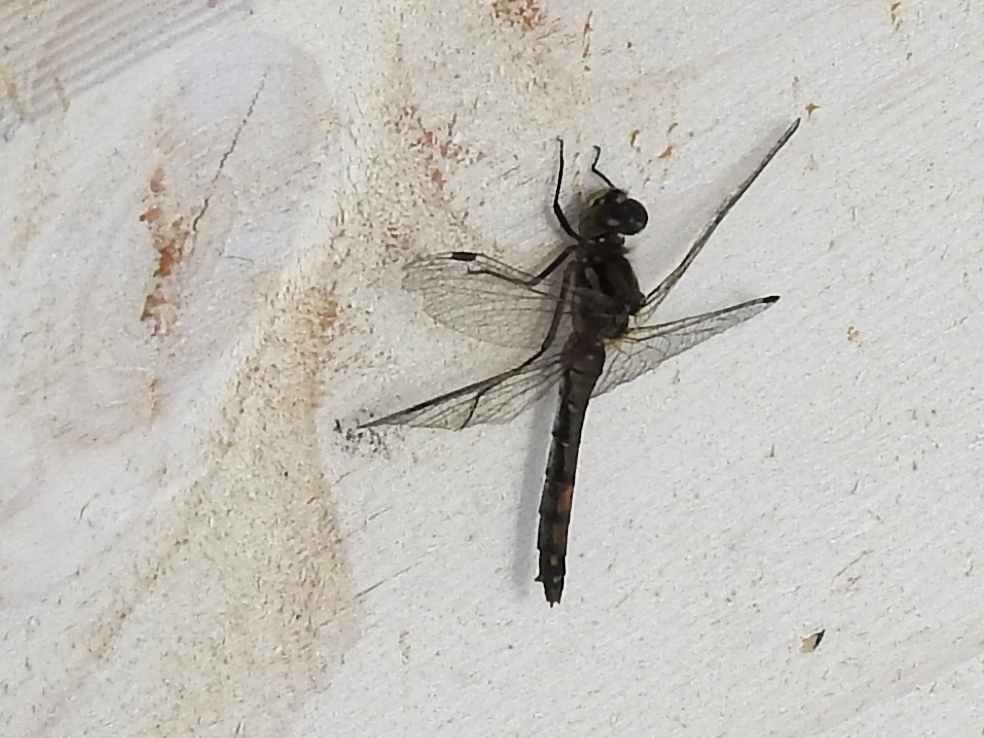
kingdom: Animalia
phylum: Arthropoda
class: Insecta
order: Odonata
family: Libellulidae
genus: Sympetrum
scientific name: Sympetrum danae
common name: Black darter
